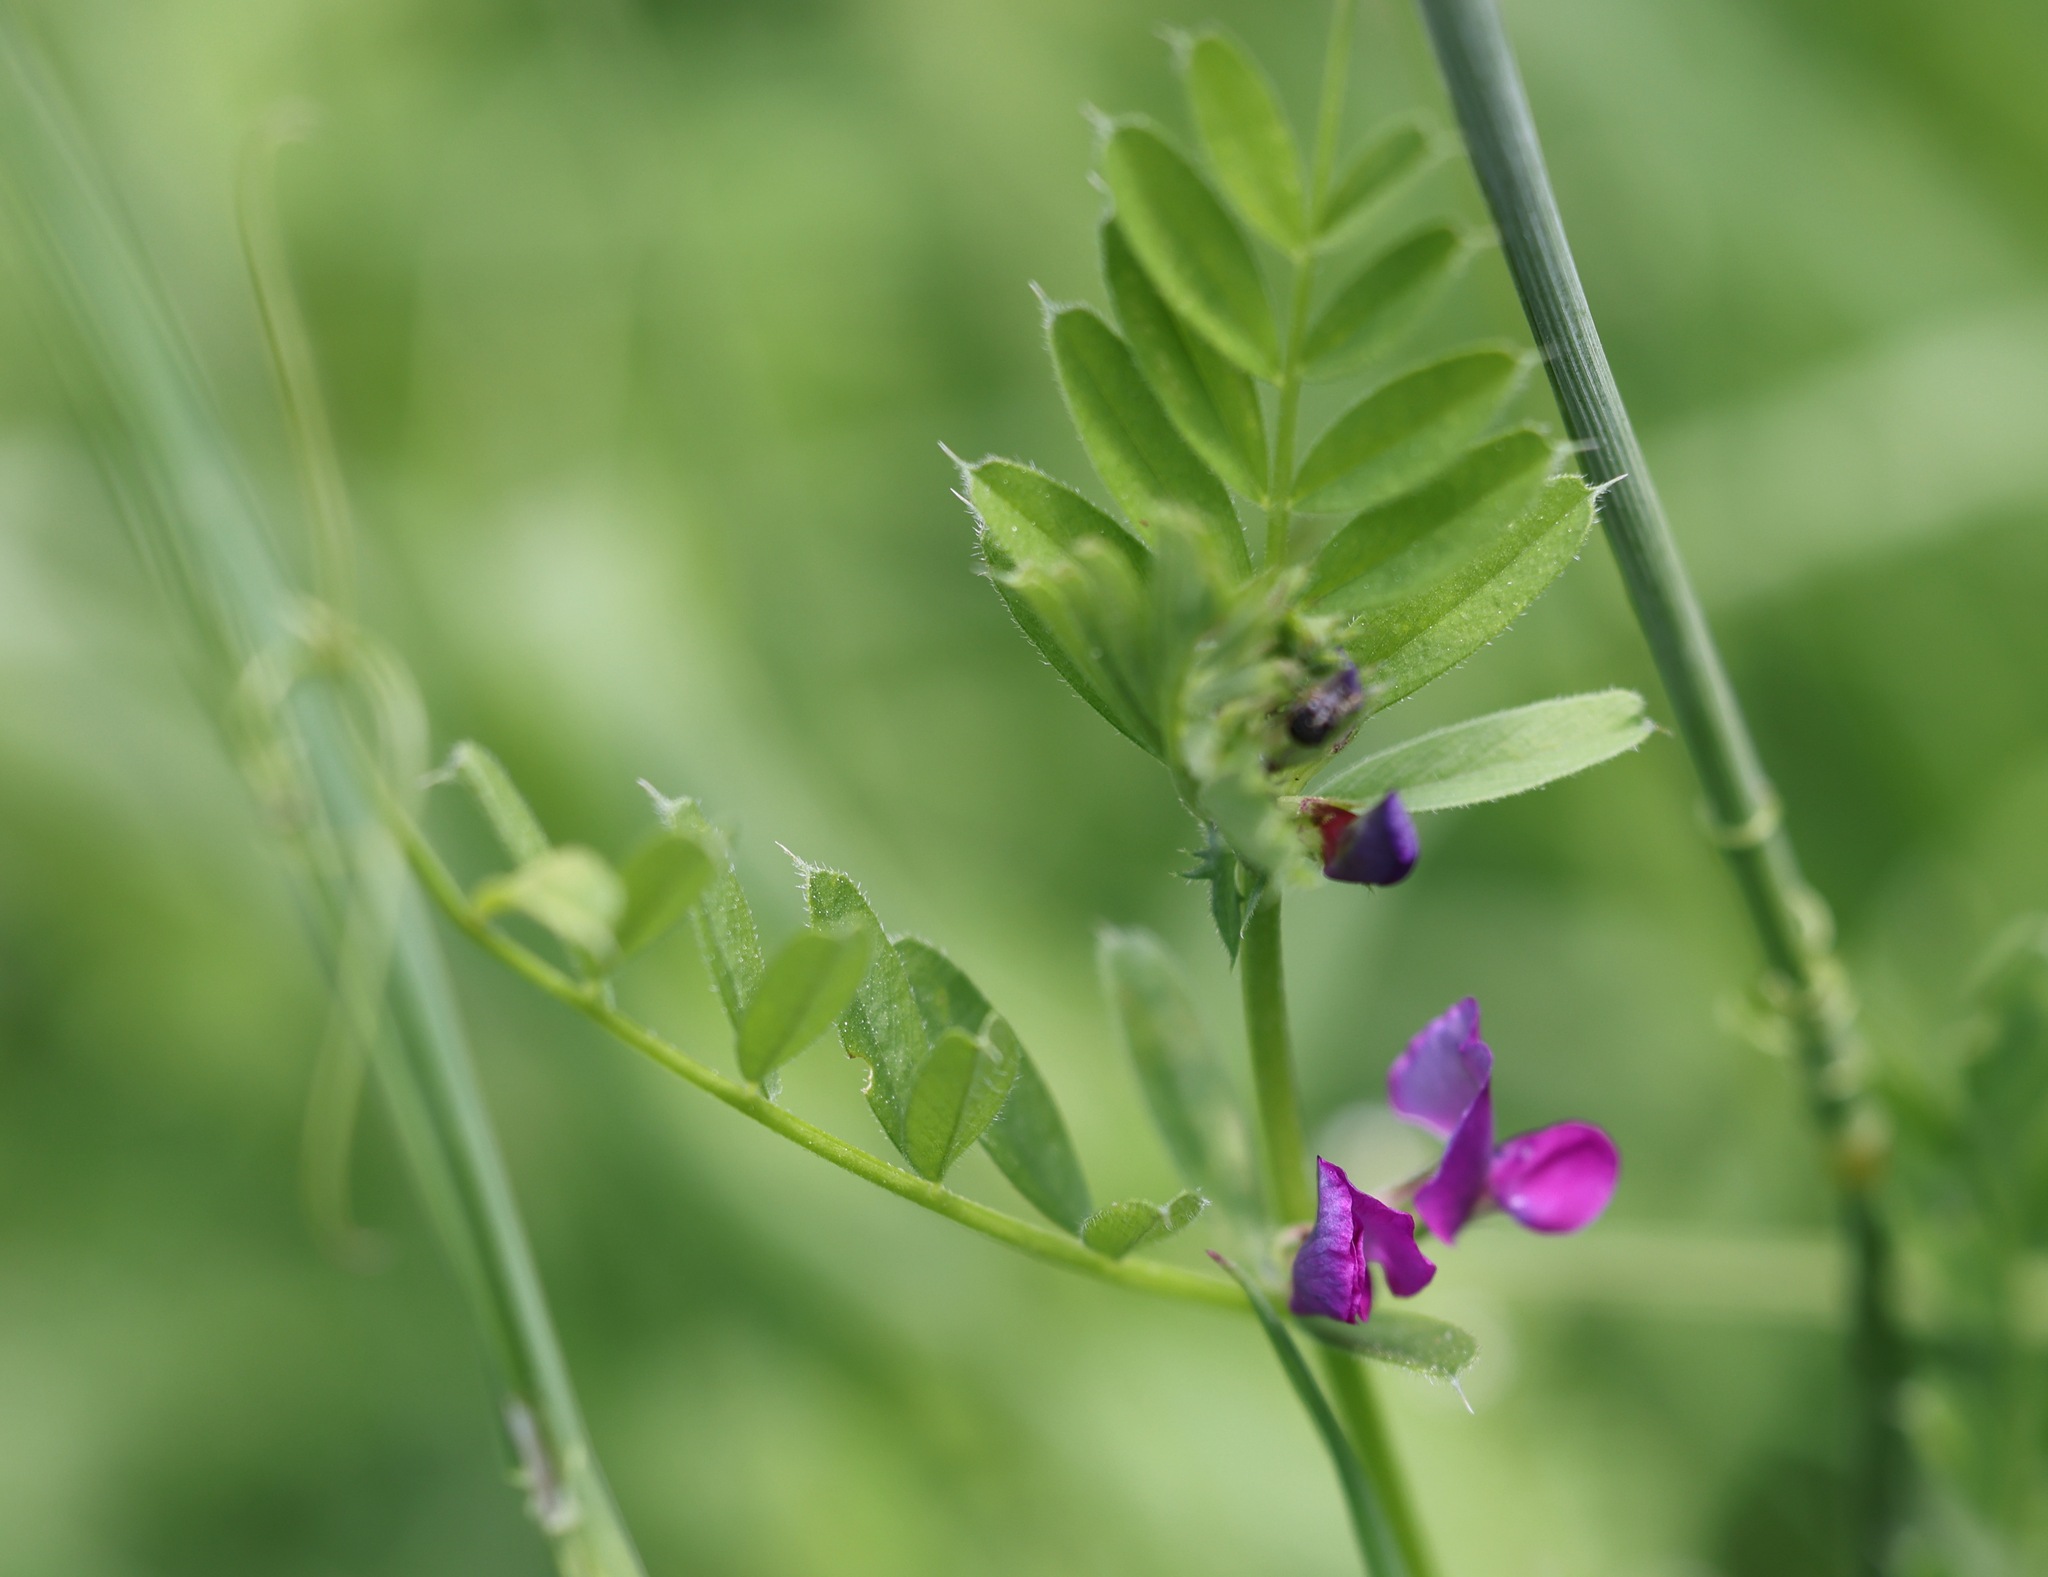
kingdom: Plantae
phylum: Tracheophyta
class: Magnoliopsida
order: Fabales
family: Fabaceae
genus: Vicia
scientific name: Vicia sativa
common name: Garden vetch
